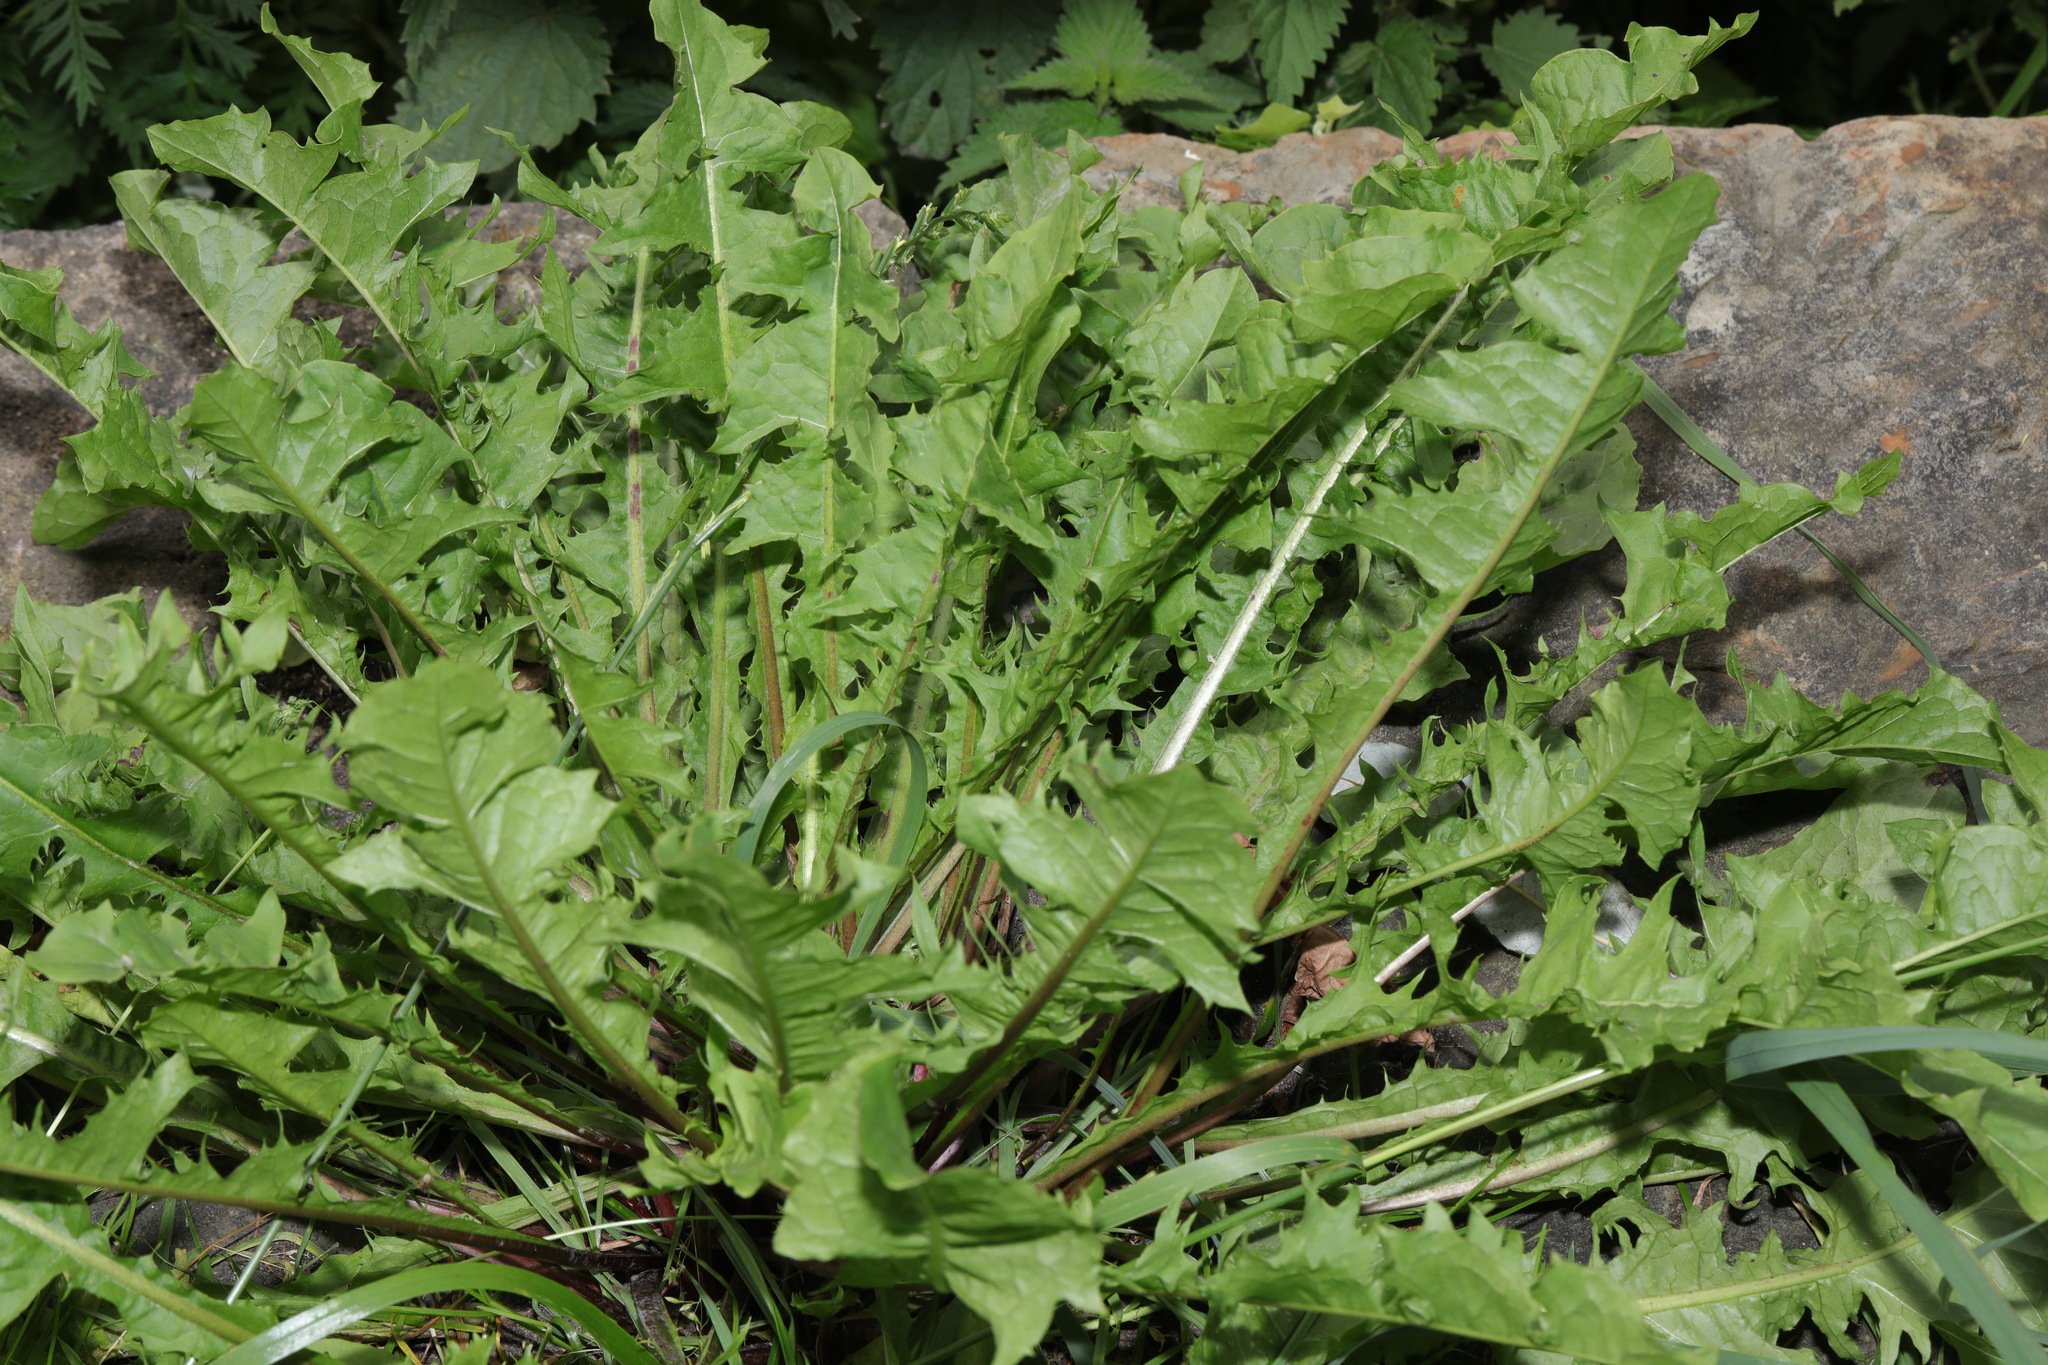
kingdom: Plantae
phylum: Tracheophyta
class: Magnoliopsida
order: Asterales
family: Asteraceae
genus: Taraxacum
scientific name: Taraxacum officinale
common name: Common dandelion
